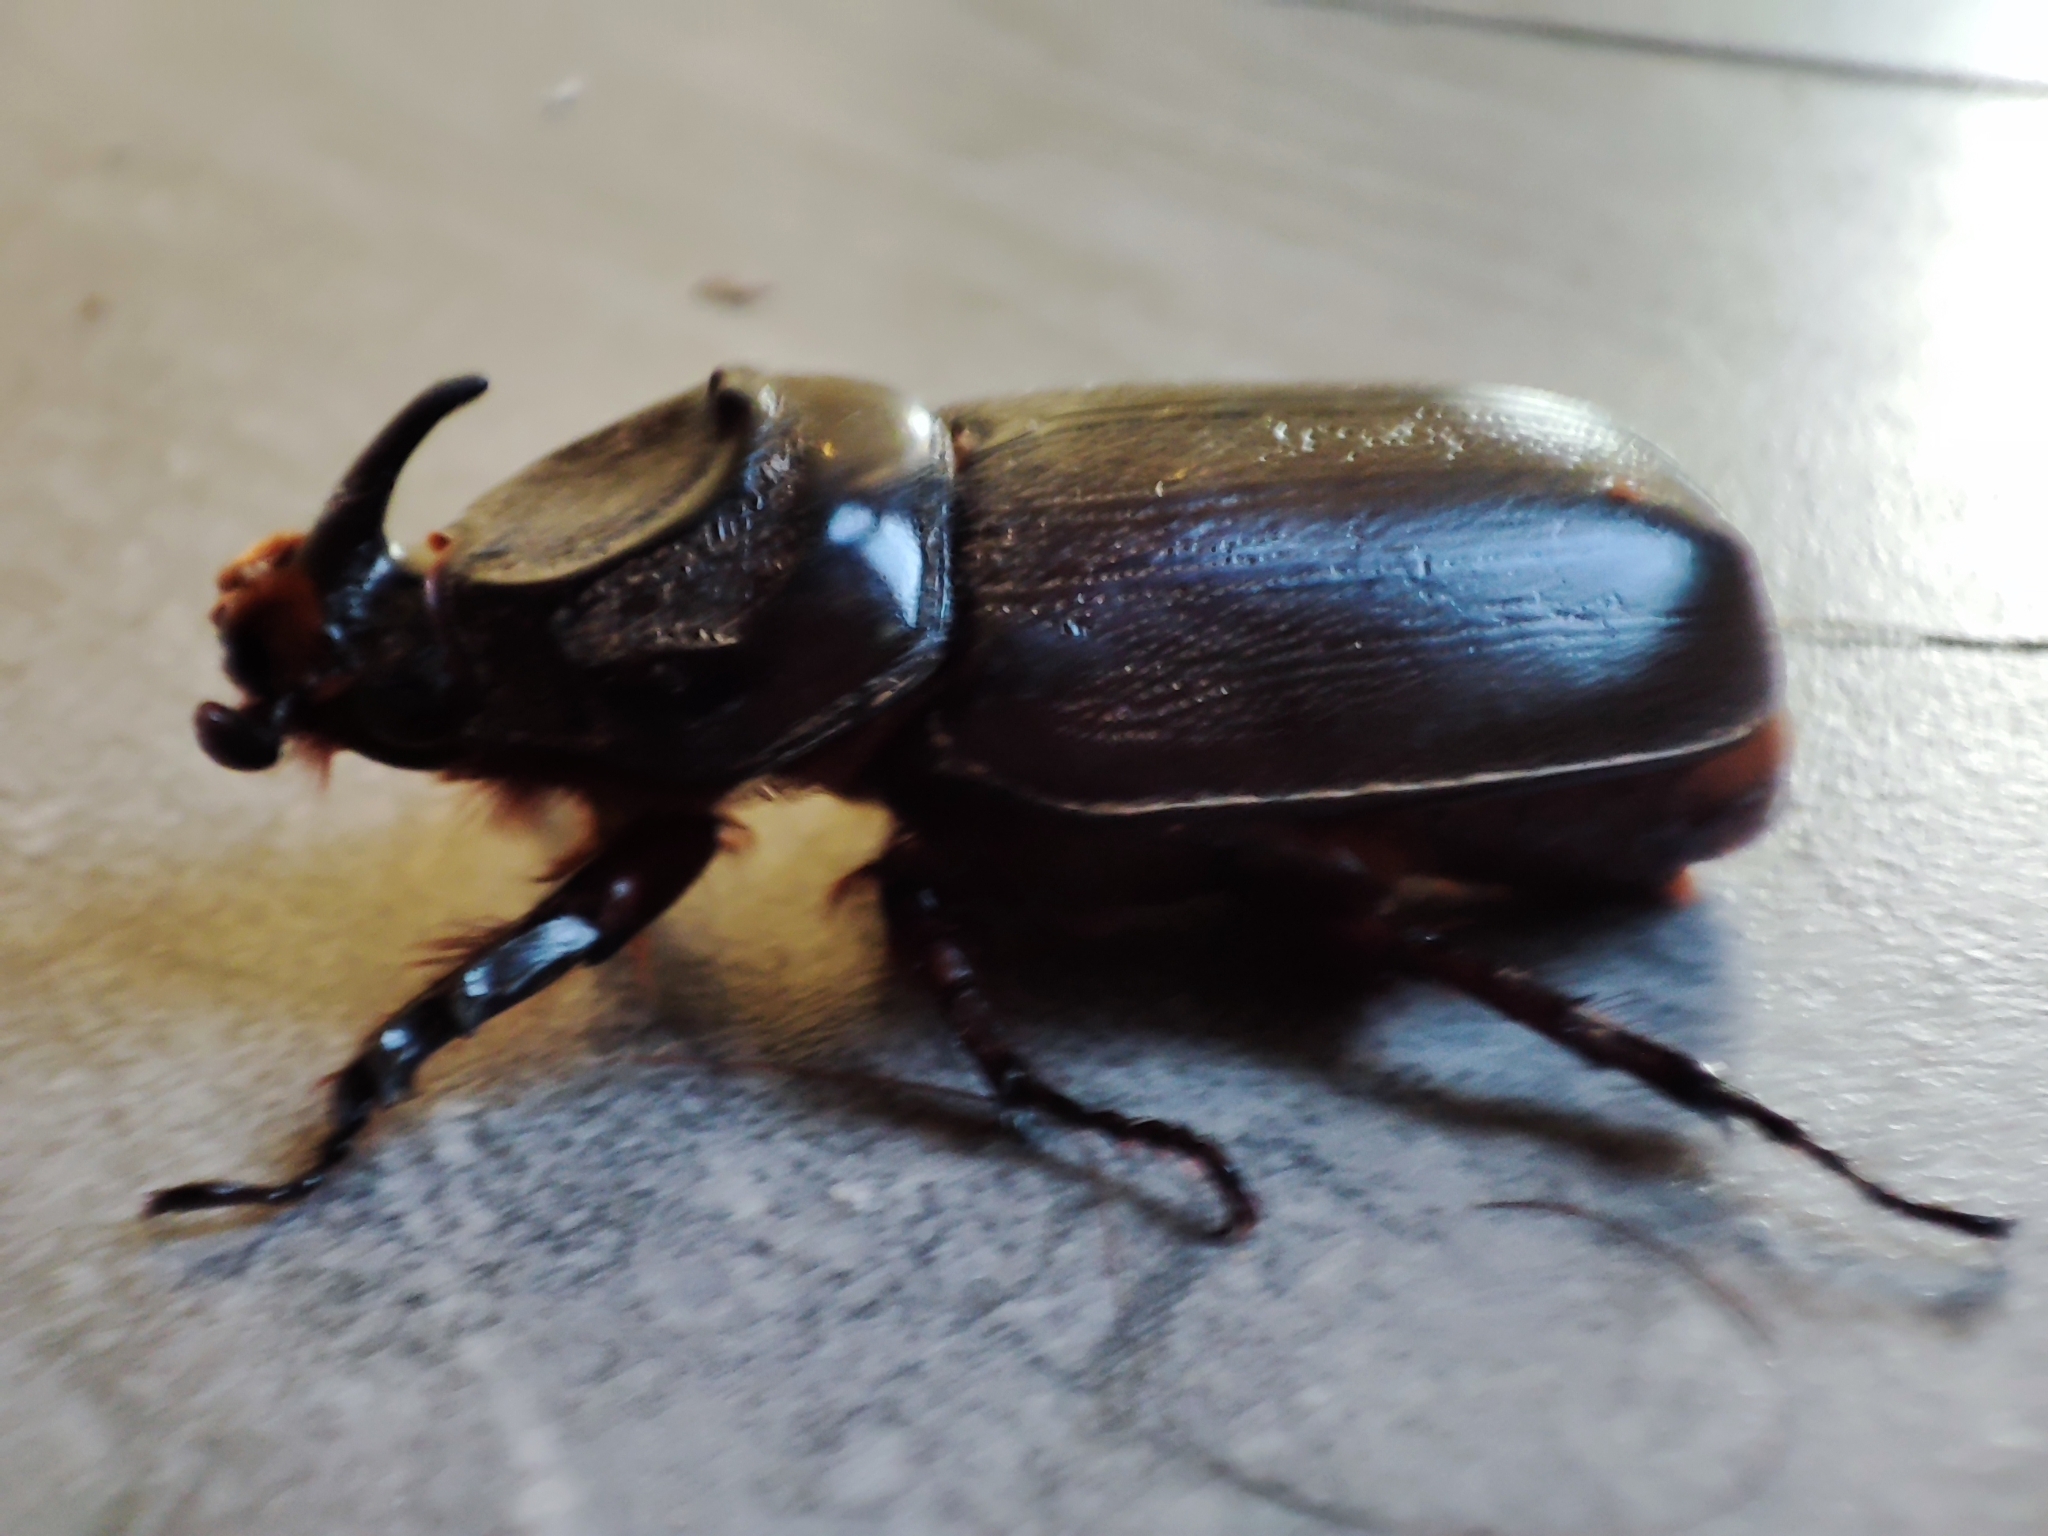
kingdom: Animalia
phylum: Arthropoda
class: Insecta
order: Coleoptera
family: Scarabaeidae
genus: Oryctes
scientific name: Oryctes rhinoceros
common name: Coconut rhinoceros beetle
